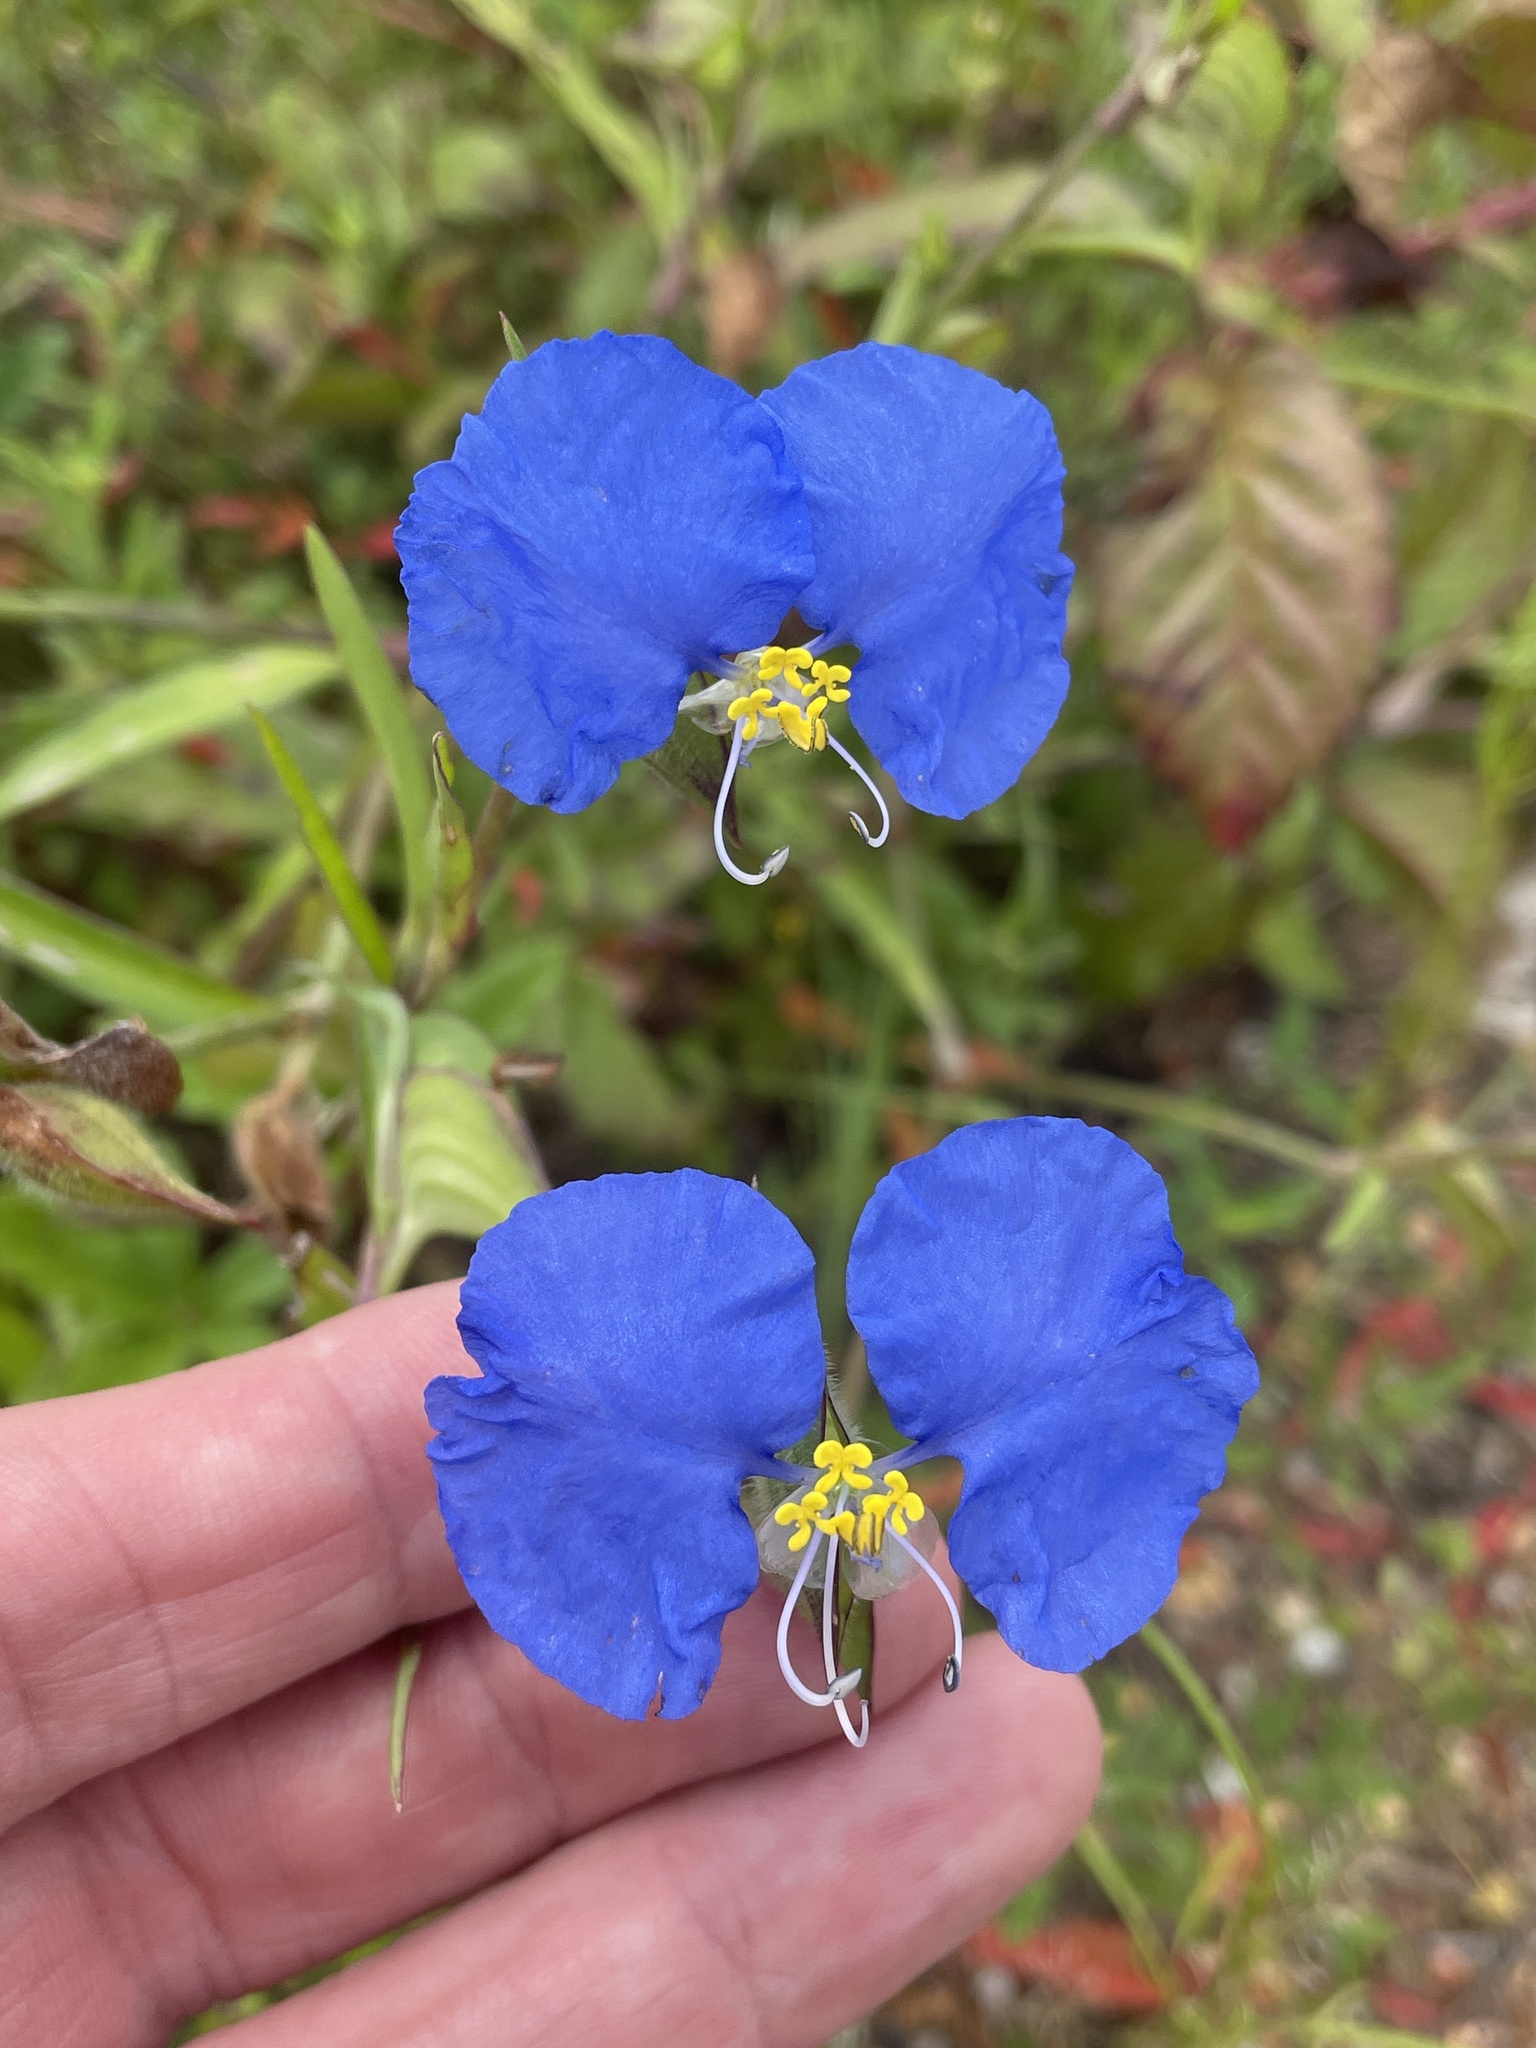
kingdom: Plantae
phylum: Tracheophyta
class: Liliopsida
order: Commelinales
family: Commelinaceae
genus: Commelina
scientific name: Commelina erecta
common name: Blousel blommetjie
